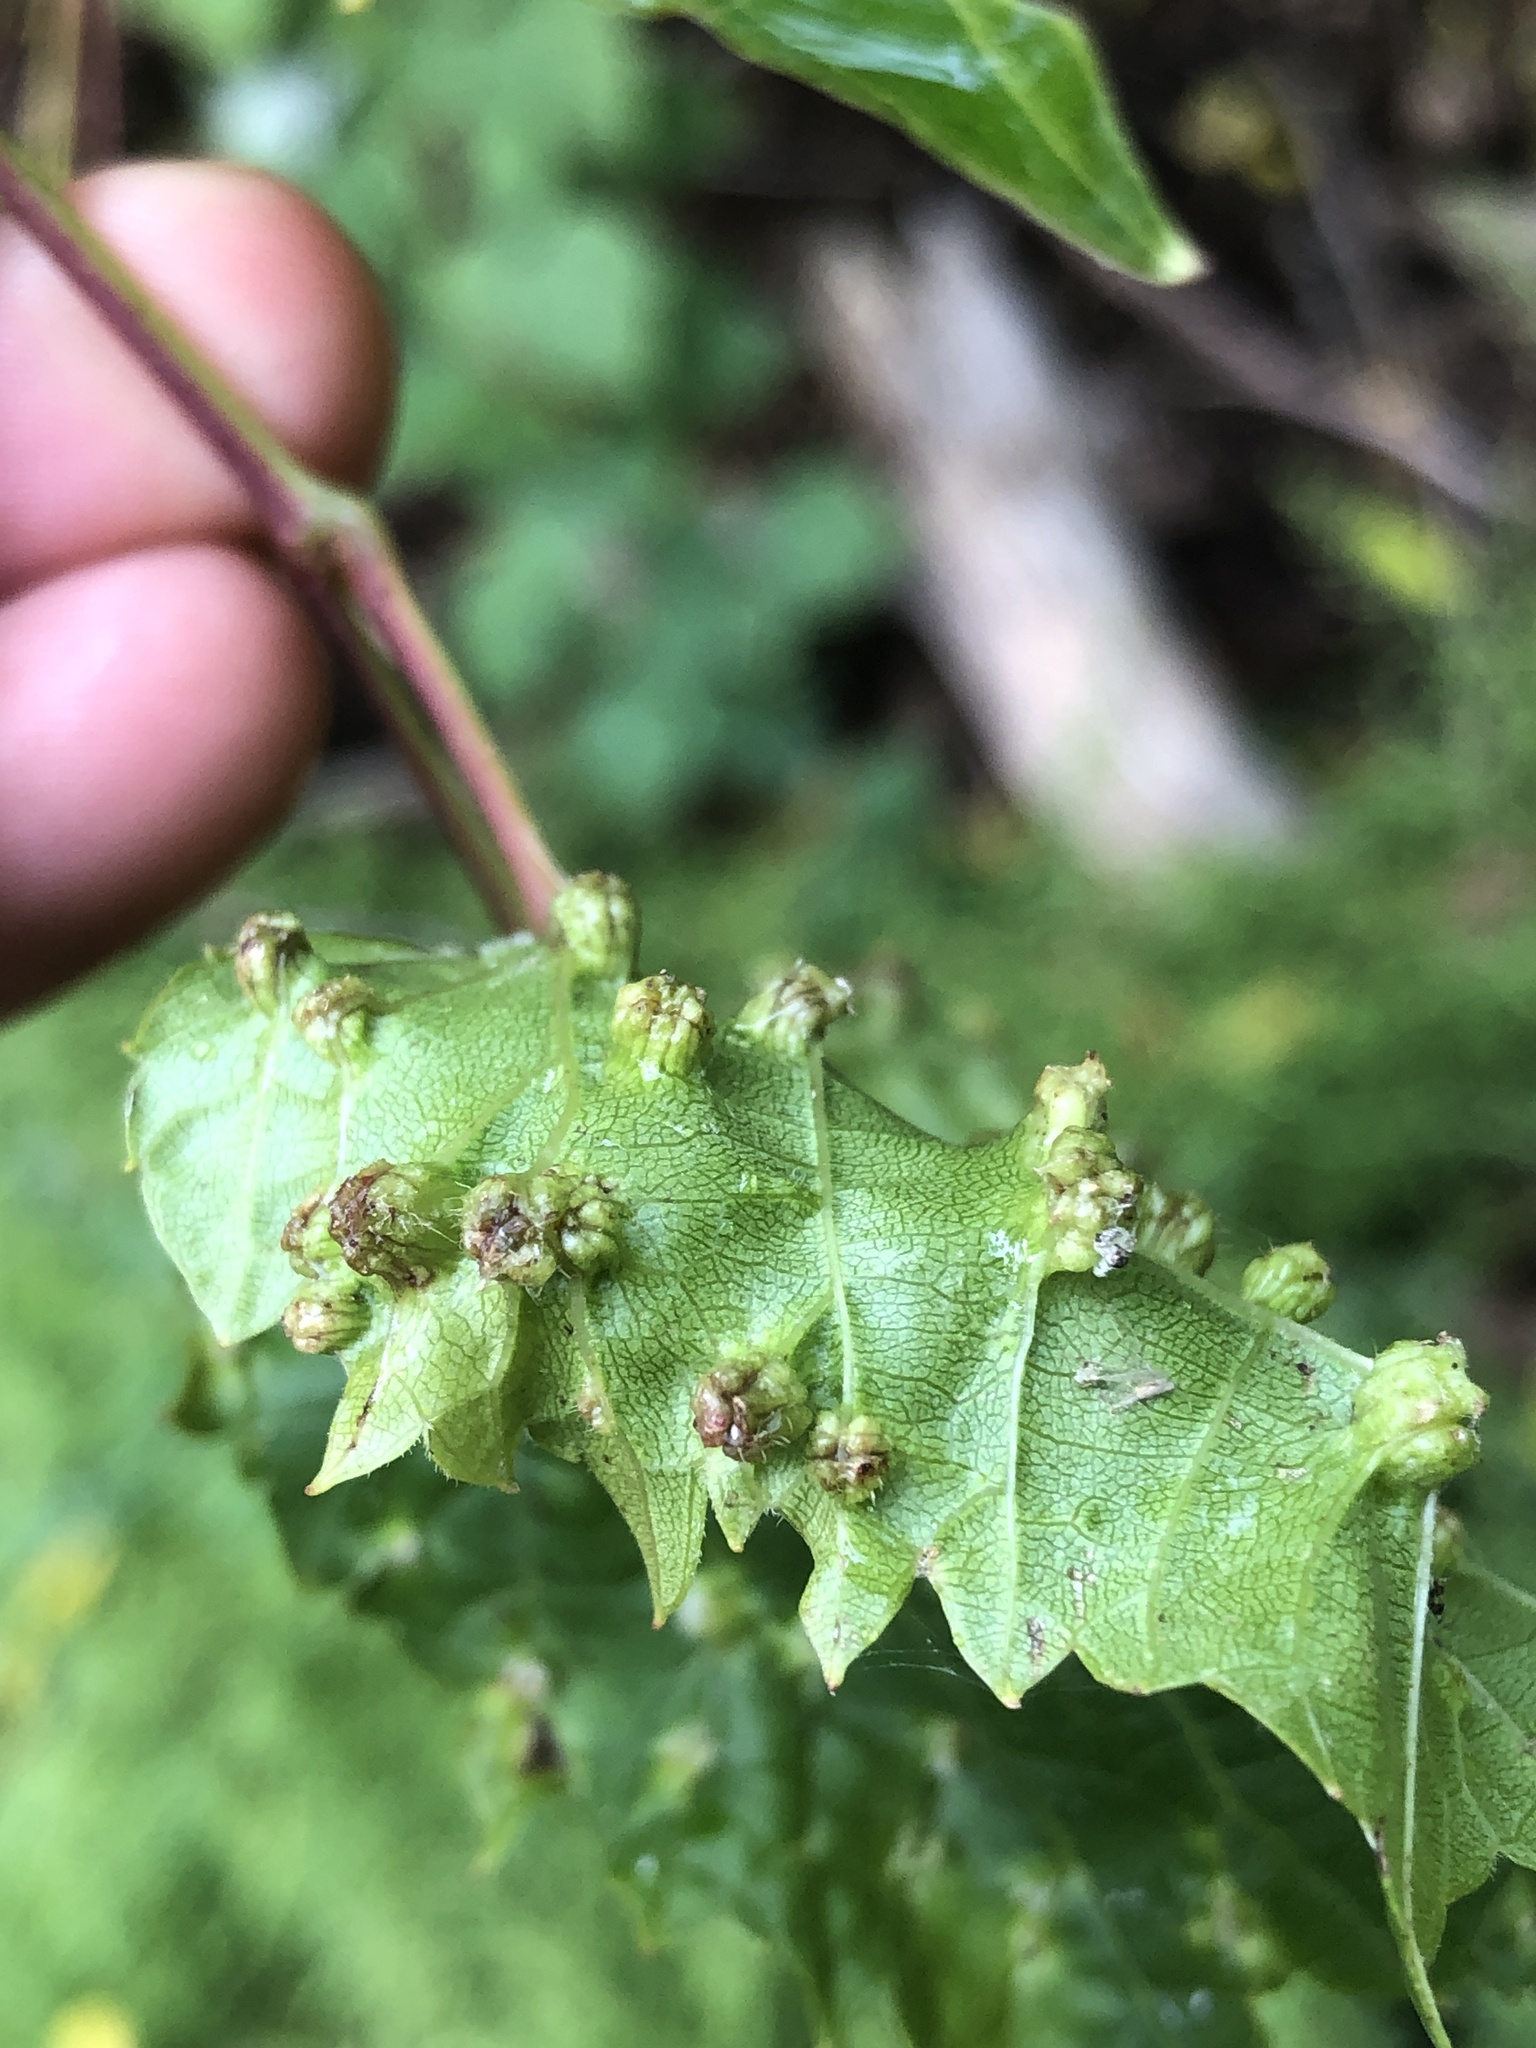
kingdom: Animalia
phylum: Arthropoda
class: Insecta
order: Hemiptera
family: Phylloxeridae
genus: Daktulosphaira
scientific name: Daktulosphaira vitifoliae
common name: Grape phylloxera
